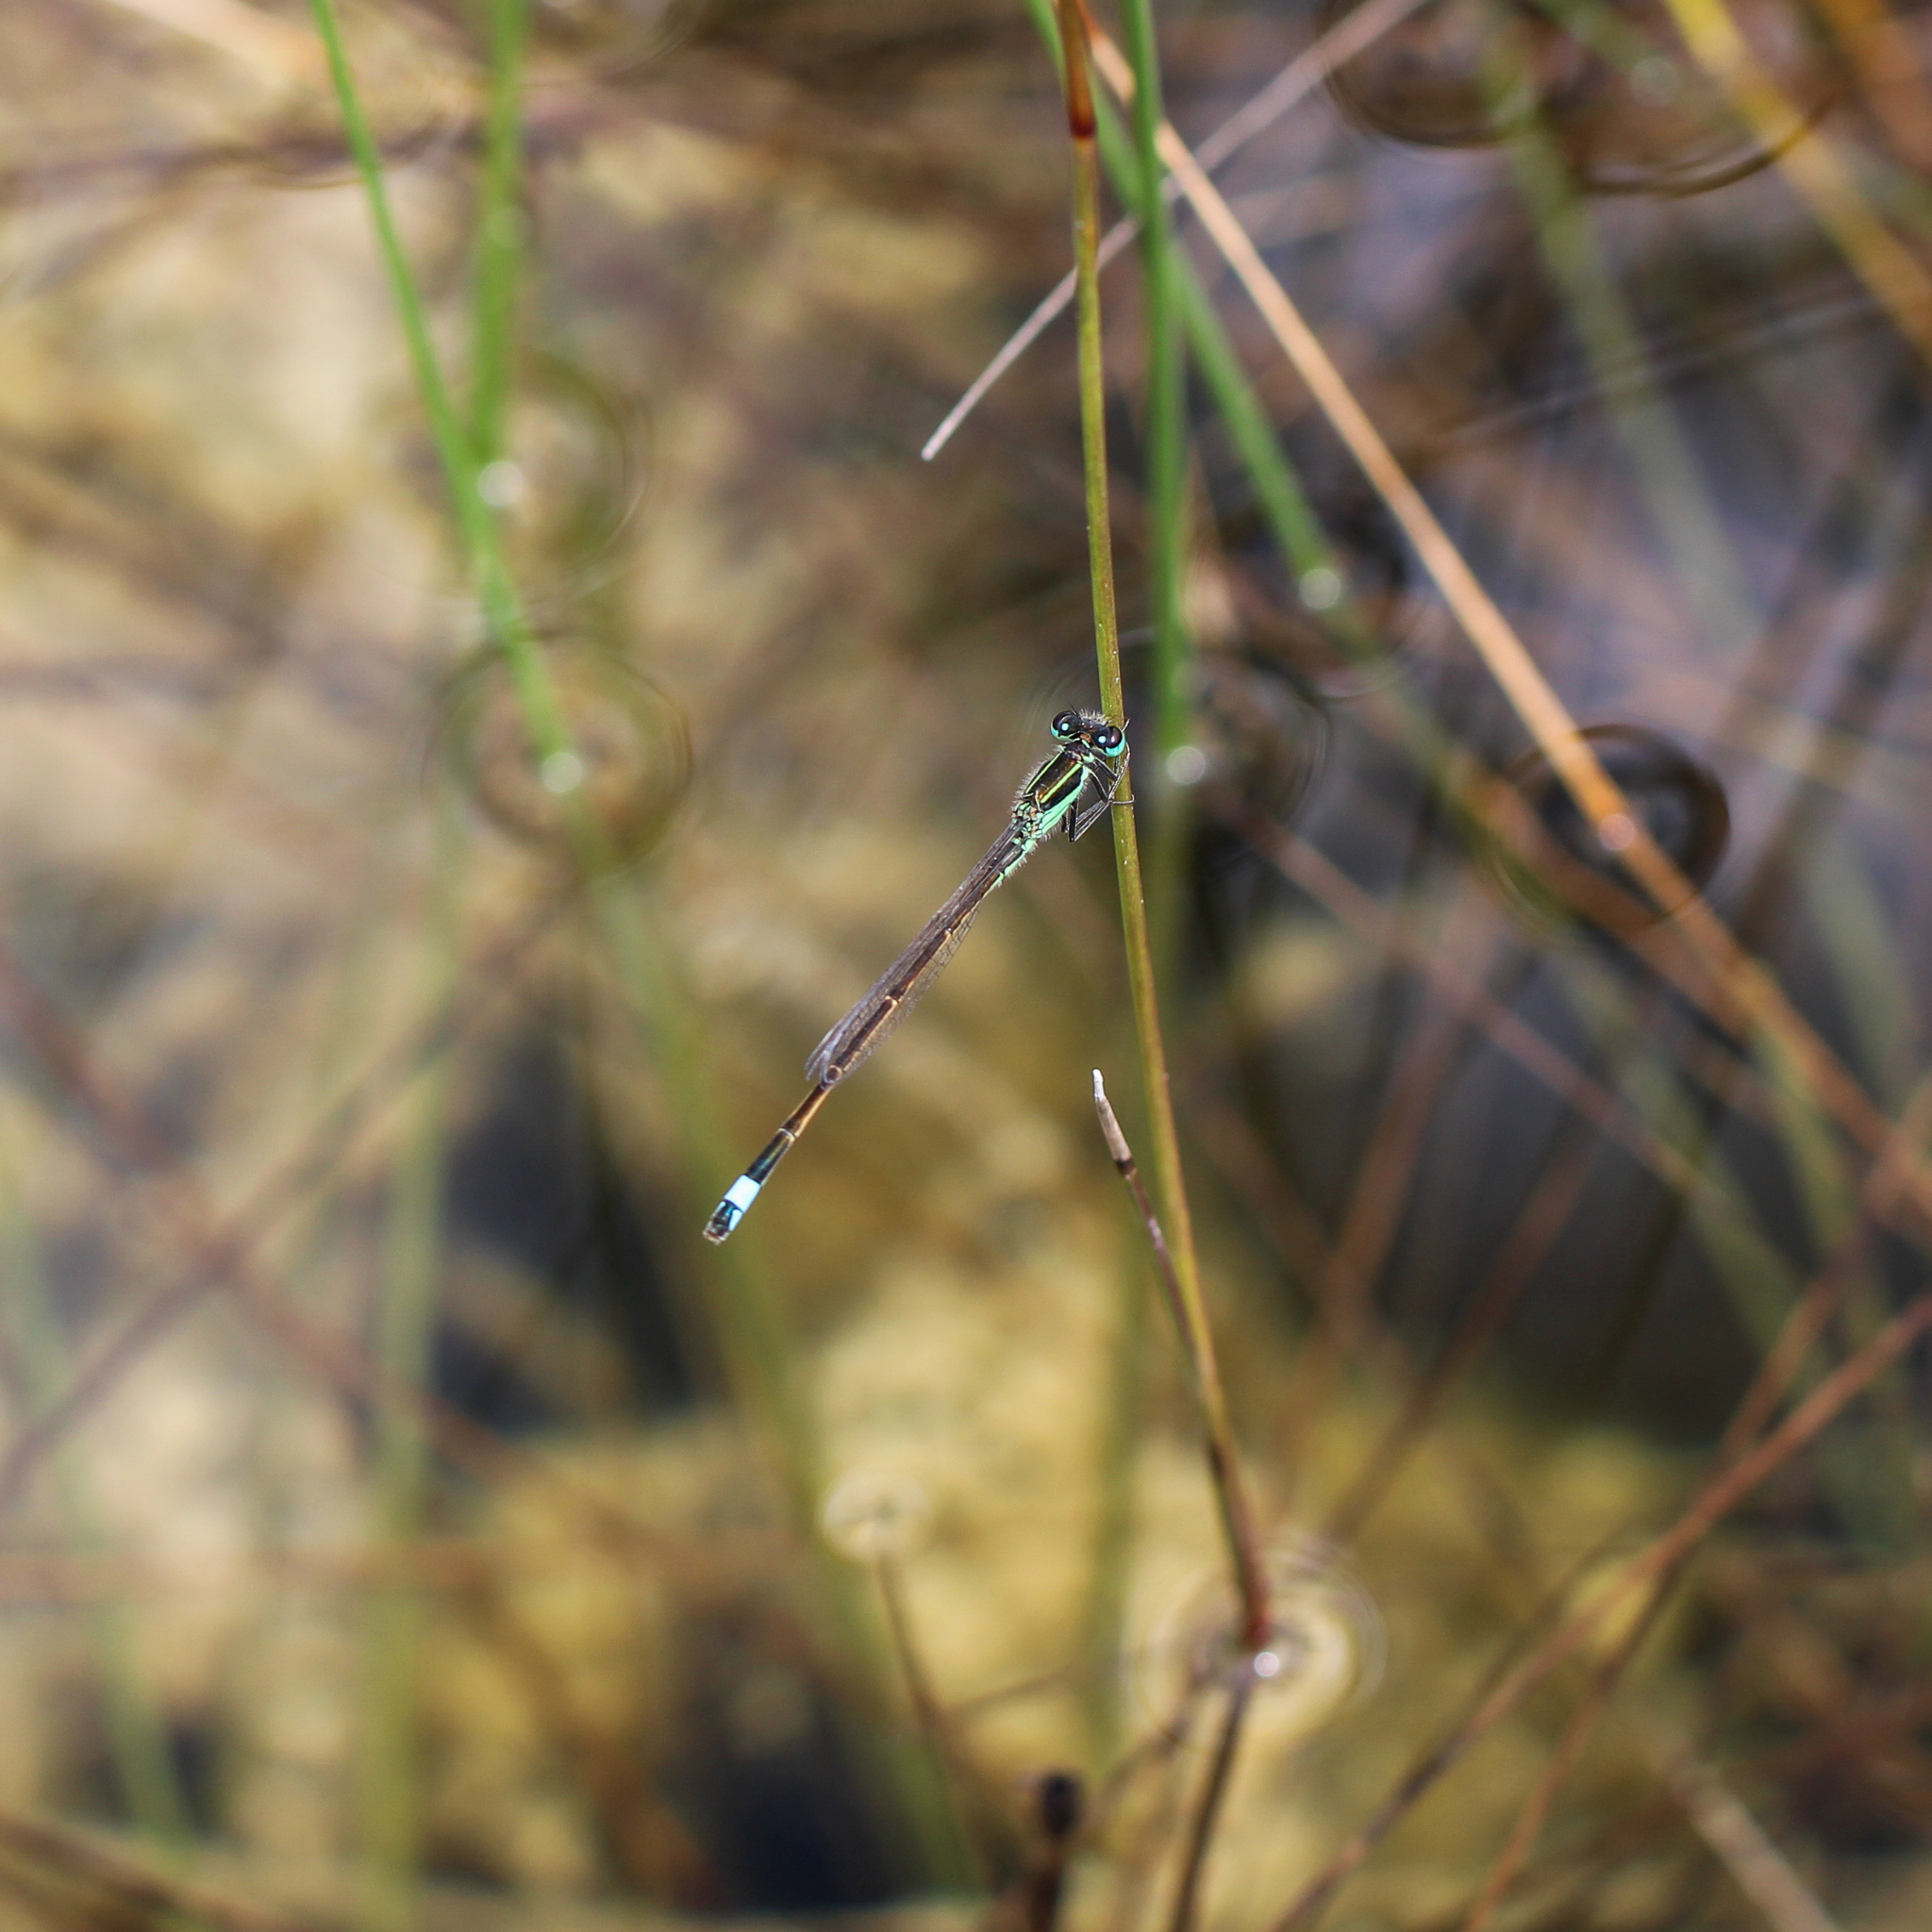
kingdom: Animalia
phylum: Arthropoda
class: Insecta
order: Odonata
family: Coenagrionidae
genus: Ischnura
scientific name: Ischnura ramburii
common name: Rambur's forktail
